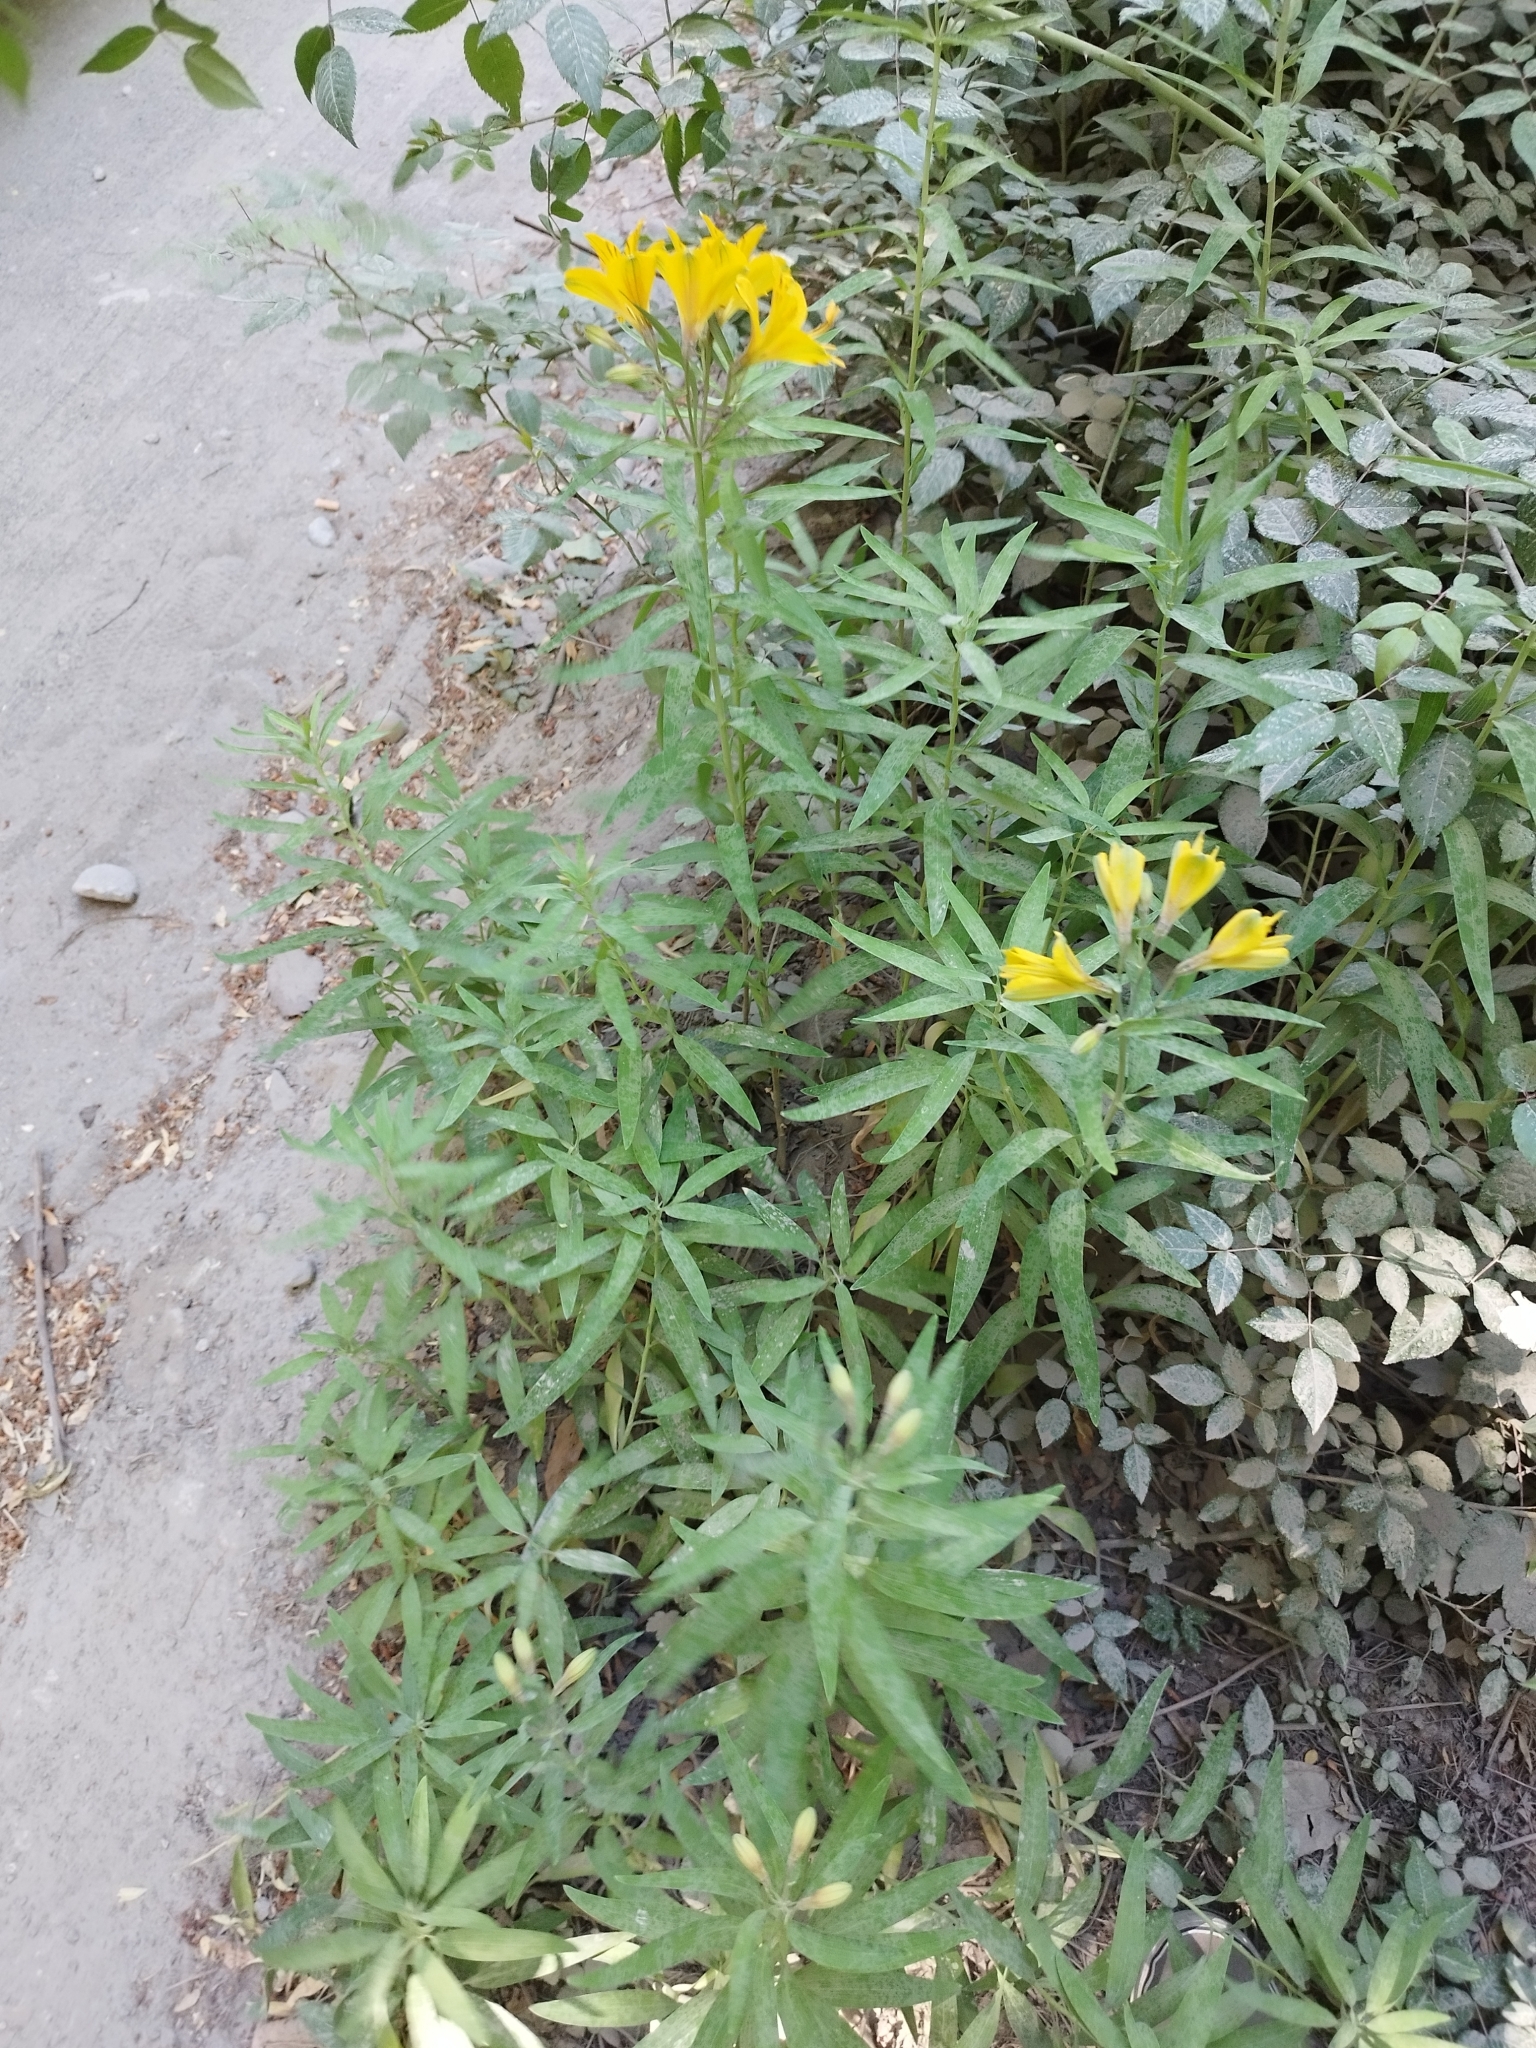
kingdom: Plantae
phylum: Tracheophyta
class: Liliopsida
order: Liliales
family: Alstroemeriaceae
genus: Alstroemeria
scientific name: Alstroemeria aurea
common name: Peruvian lily
